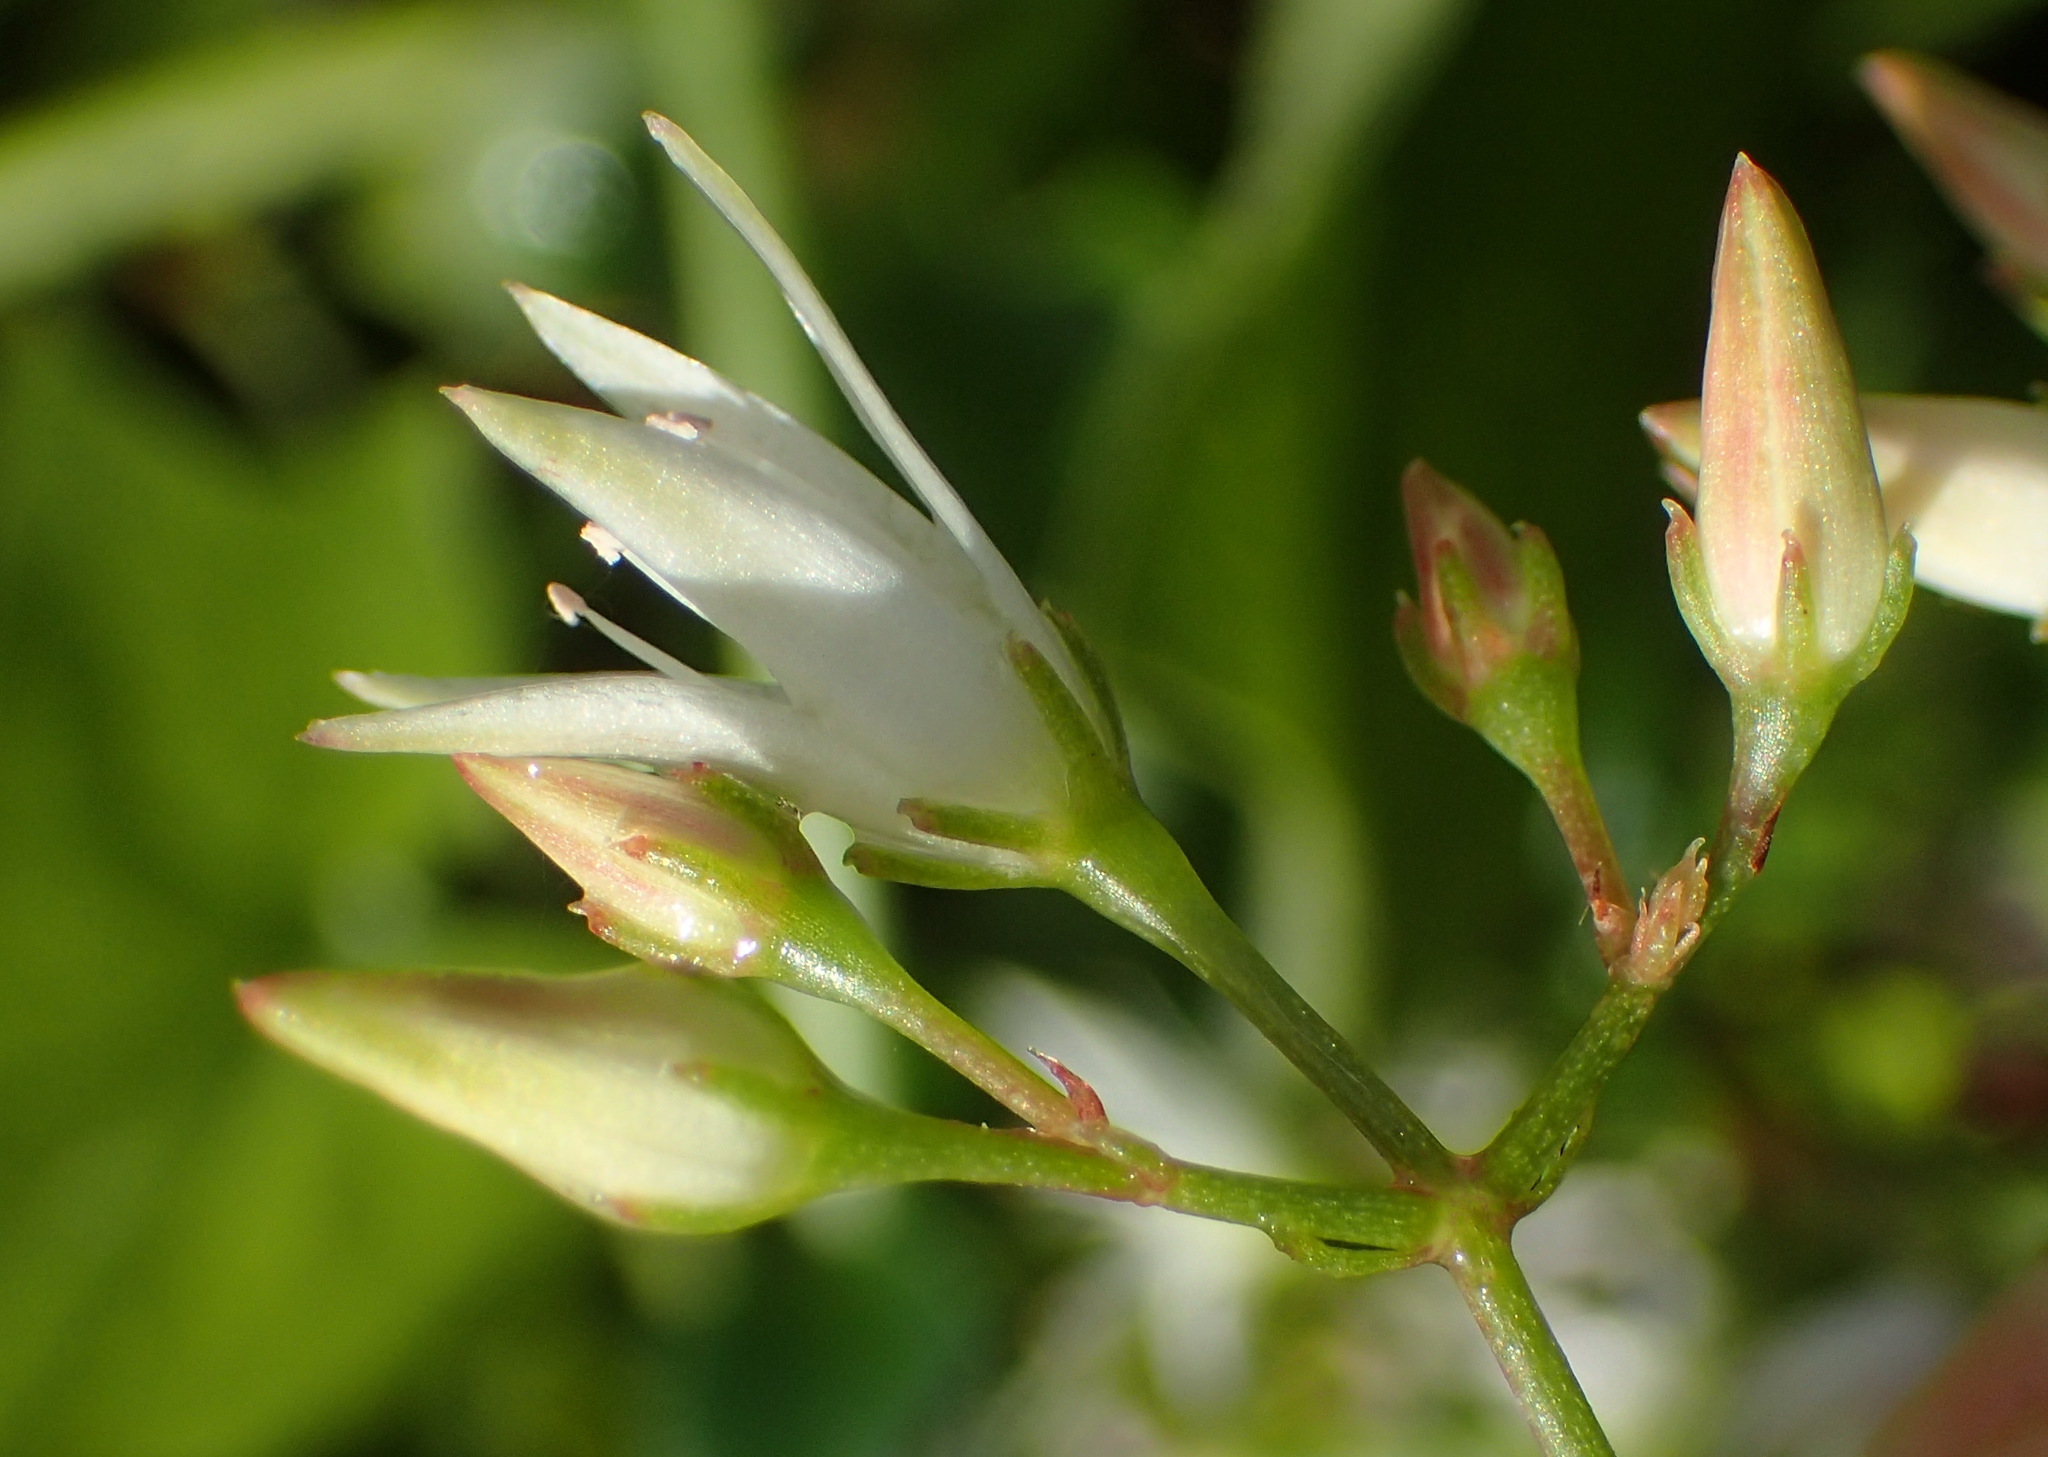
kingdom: Plantae
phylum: Tracheophyta
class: Magnoliopsida
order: Saxifragales
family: Crassulaceae
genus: Crassula
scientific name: Crassula sarmentosa
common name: Jade-tree
